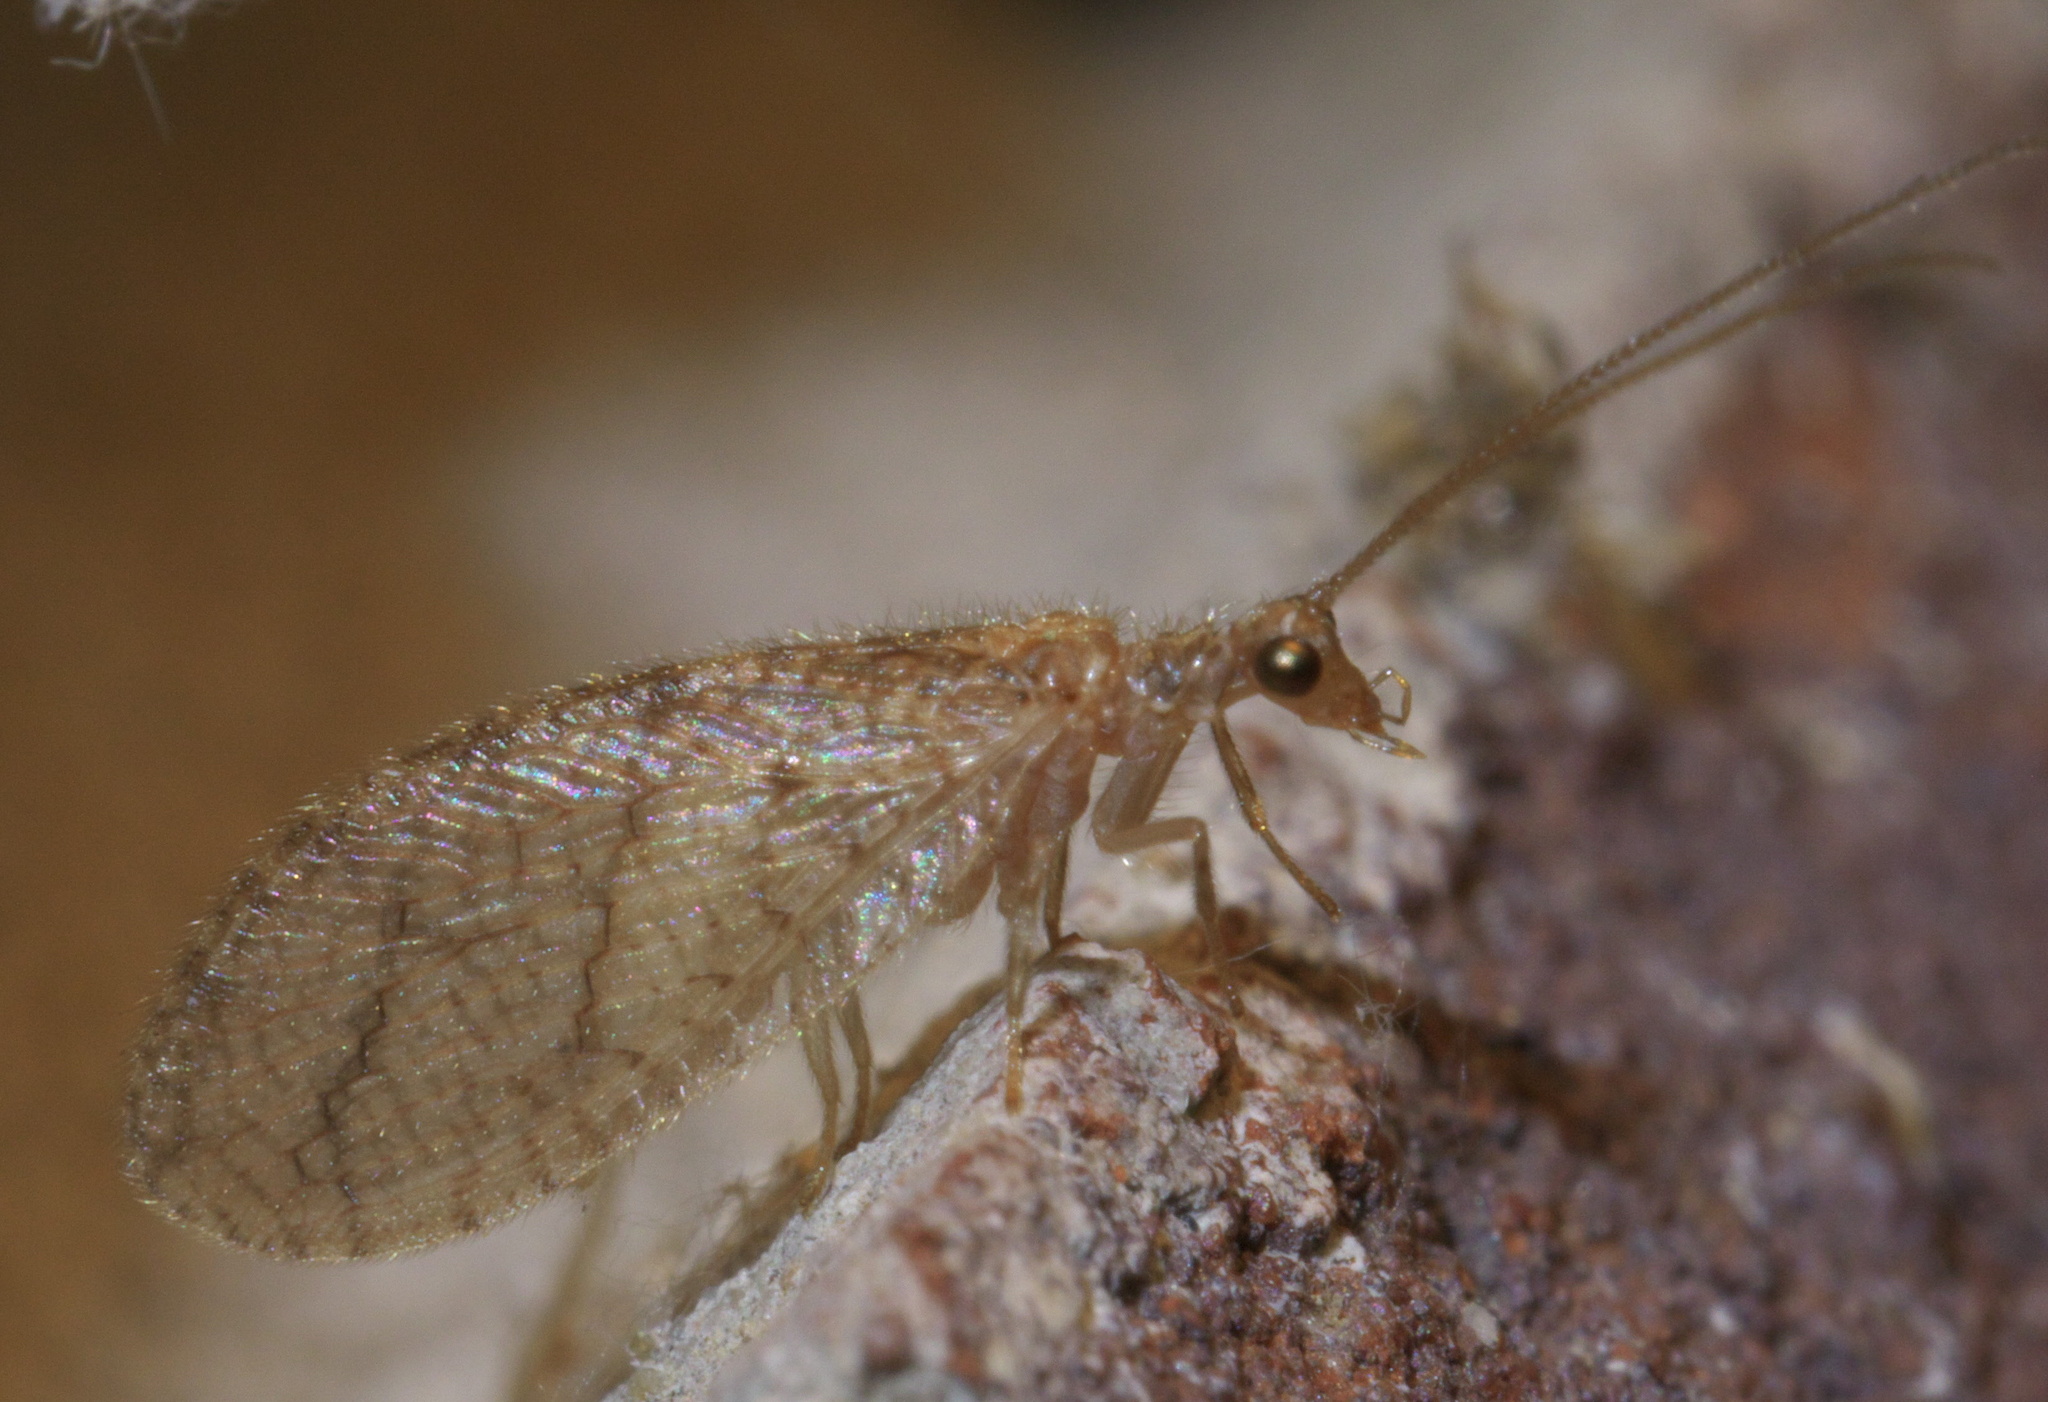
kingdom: Animalia
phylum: Arthropoda
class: Insecta
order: Neuroptera
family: Hemerobiidae
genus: Micromus
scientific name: Micromus posticus
